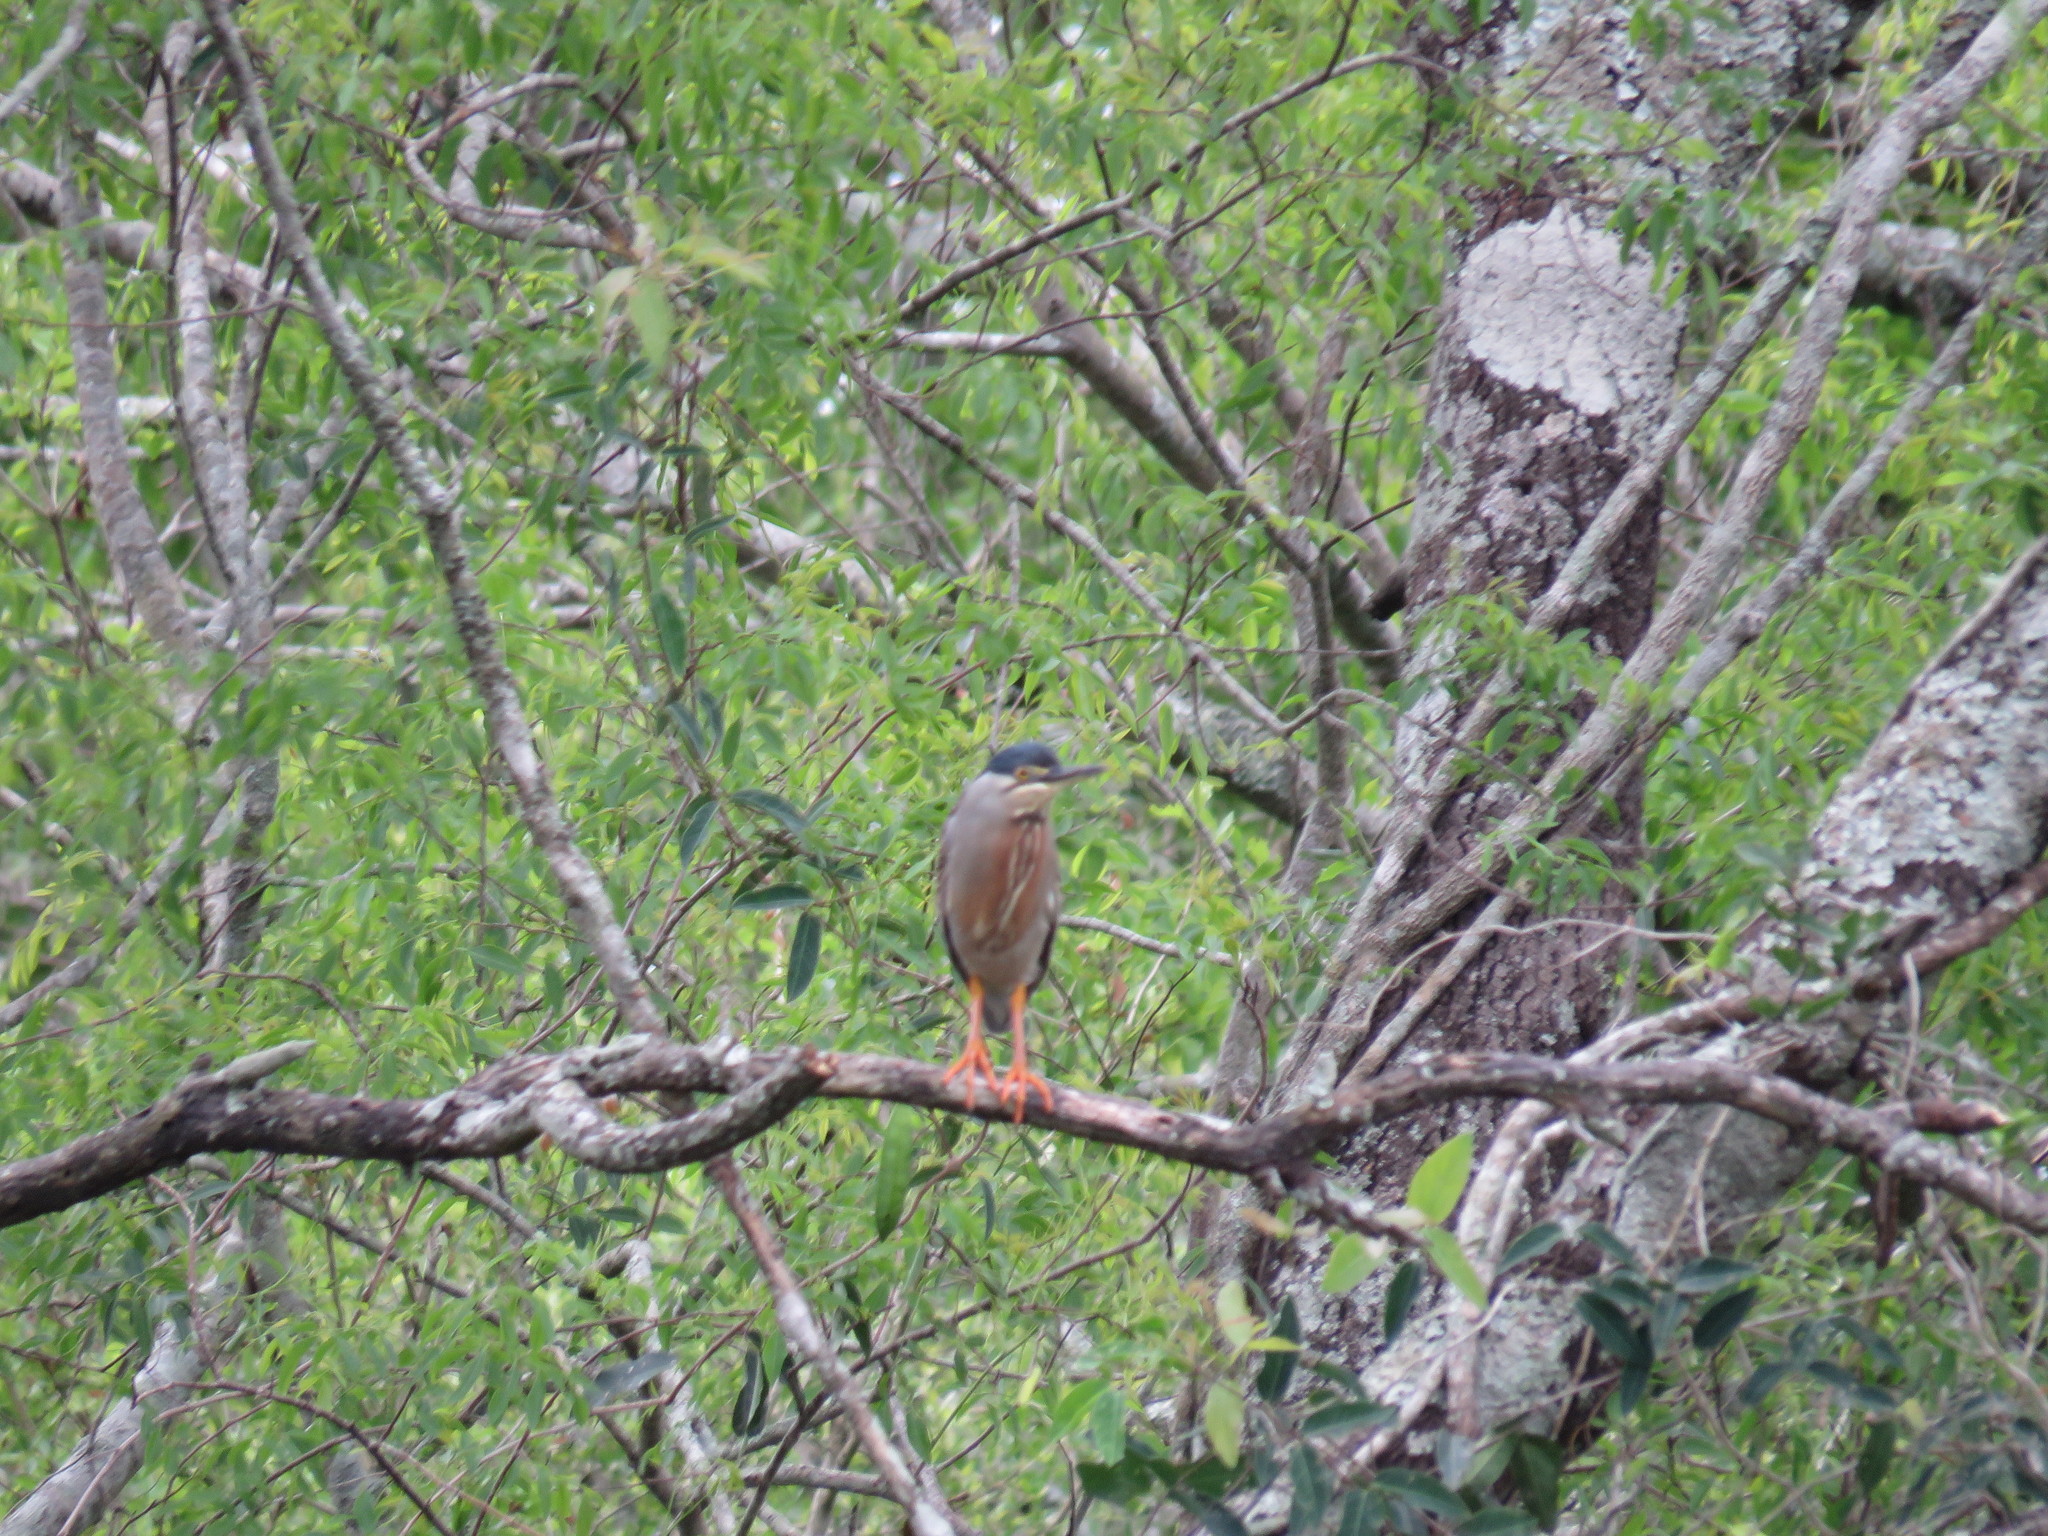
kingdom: Animalia
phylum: Chordata
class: Aves
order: Pelecaniformes
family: Ardeidae
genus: Butorides
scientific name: Butorides striata
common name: Striated heron
